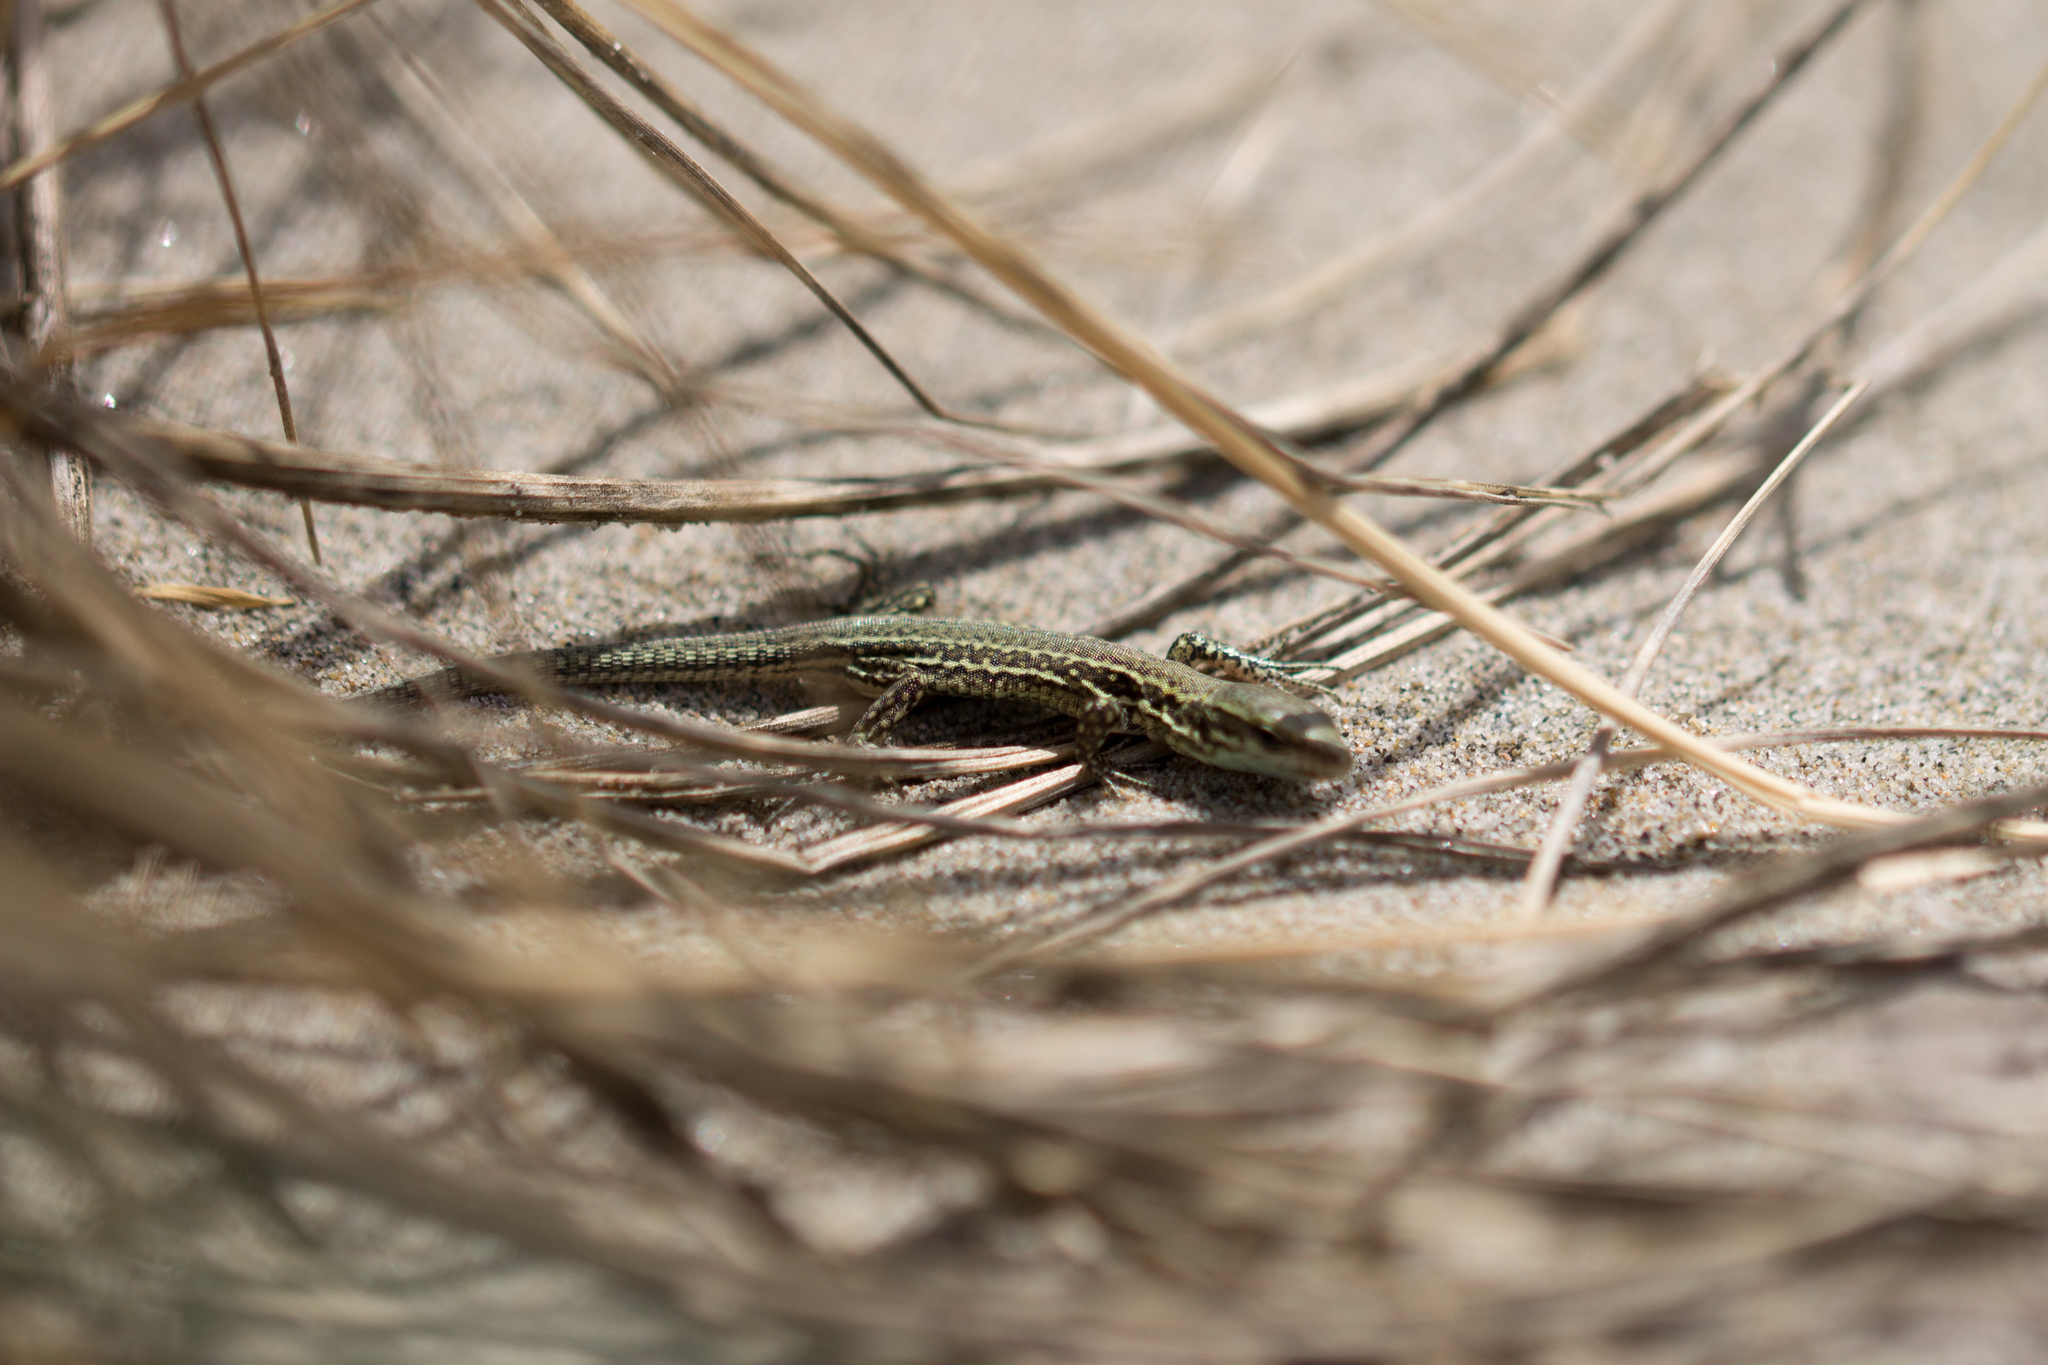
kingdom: Animalia
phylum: Chordata
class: Squamata
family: Lacertidae
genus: Podarcis
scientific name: Podarcis muralis
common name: Common wall lizard
